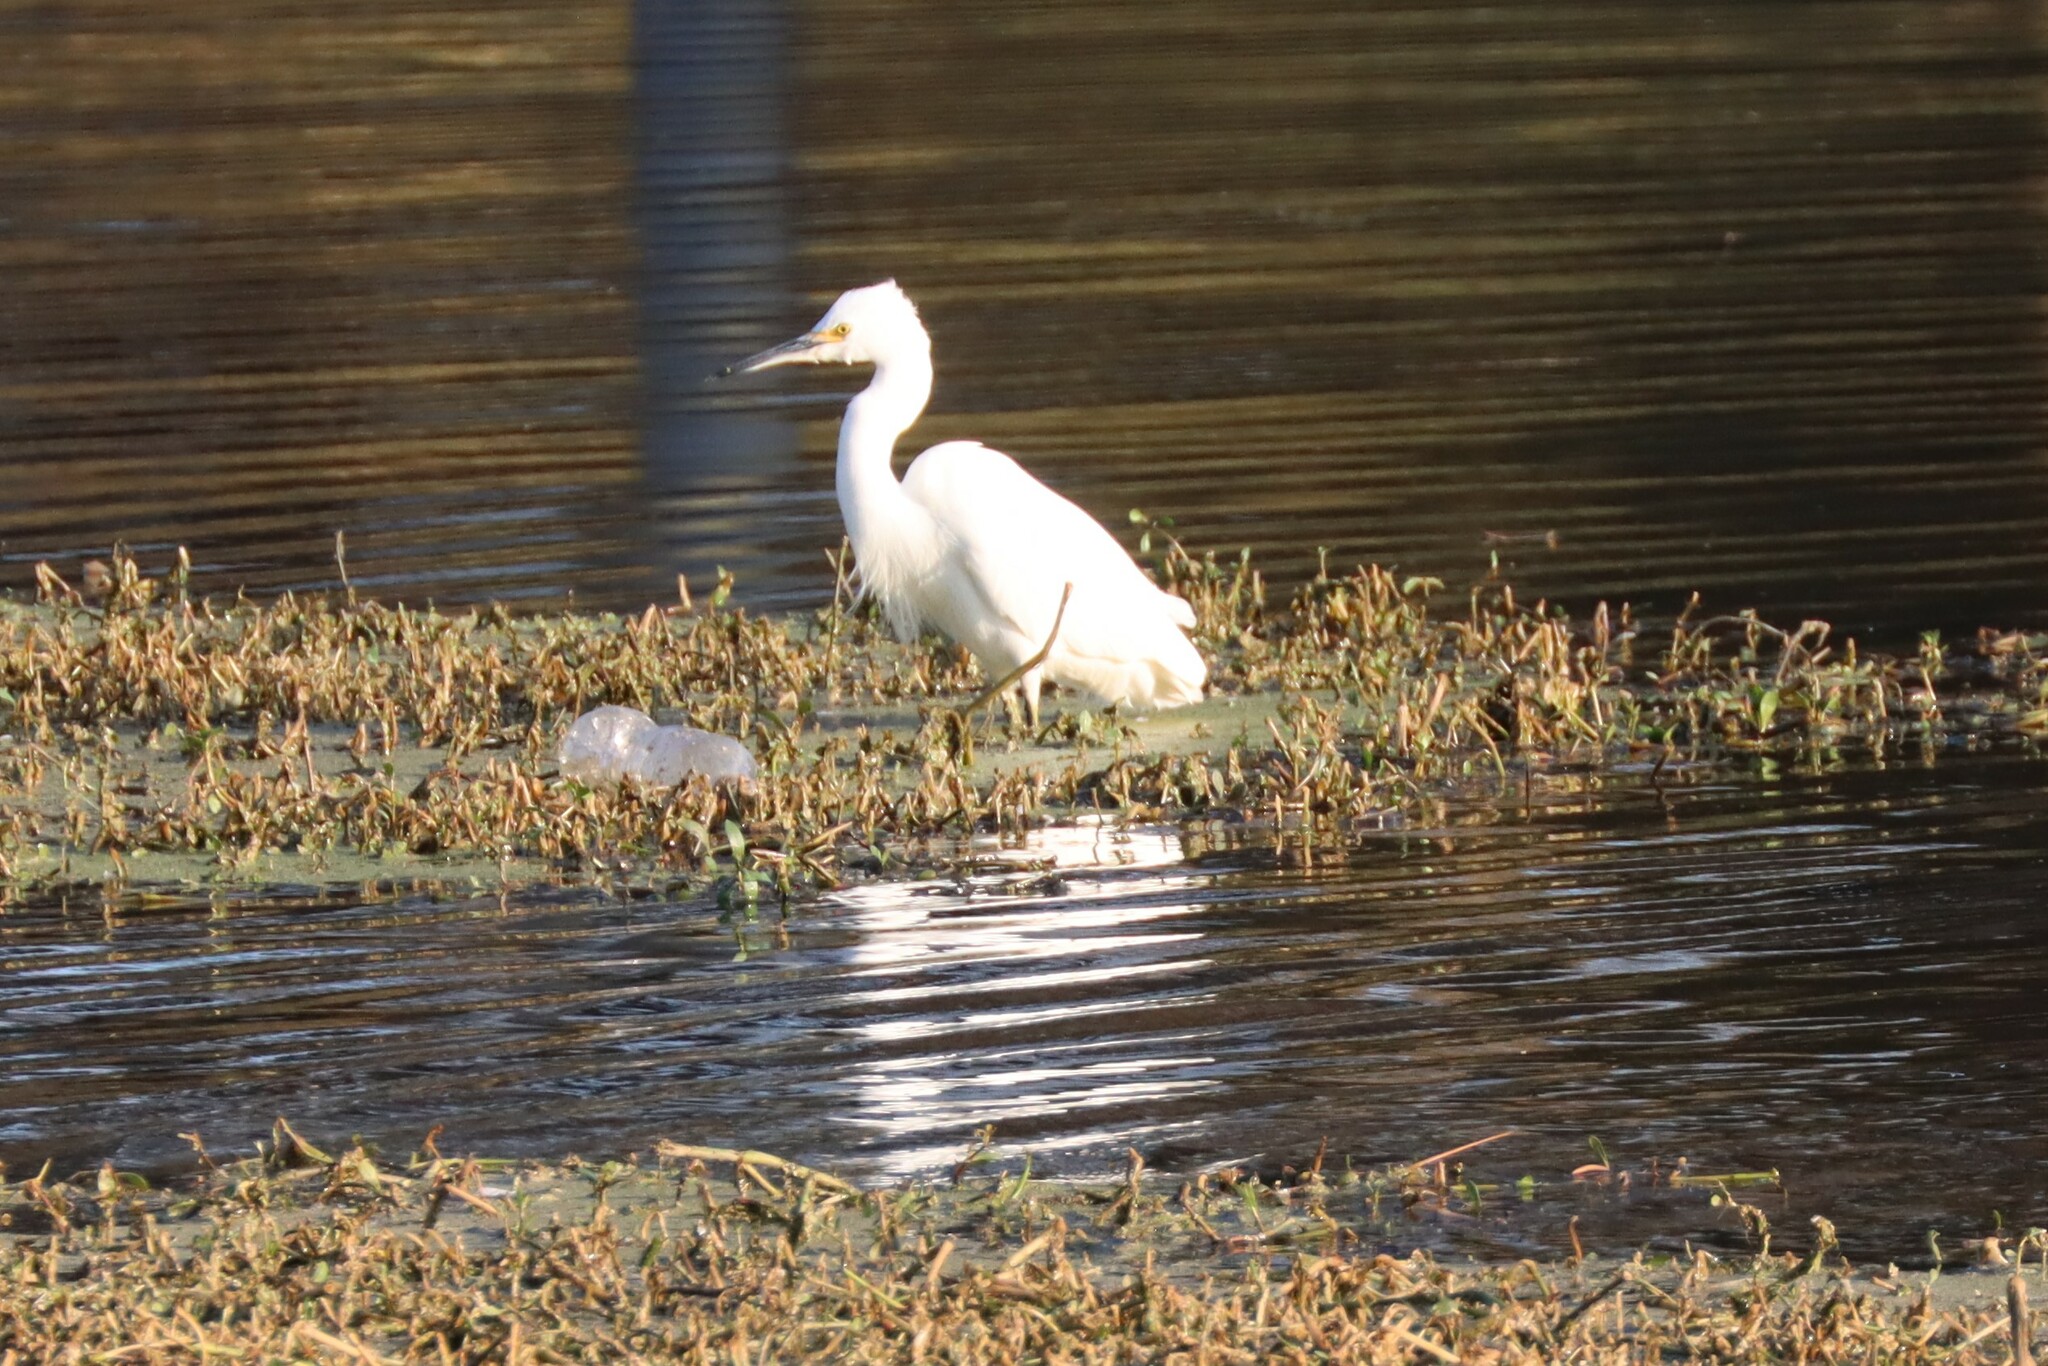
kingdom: Animalia
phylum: Chordata
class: Aves
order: Pelecaniformes
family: Ardeidae
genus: Egretta
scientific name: Egretta thula
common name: Snowy egret
